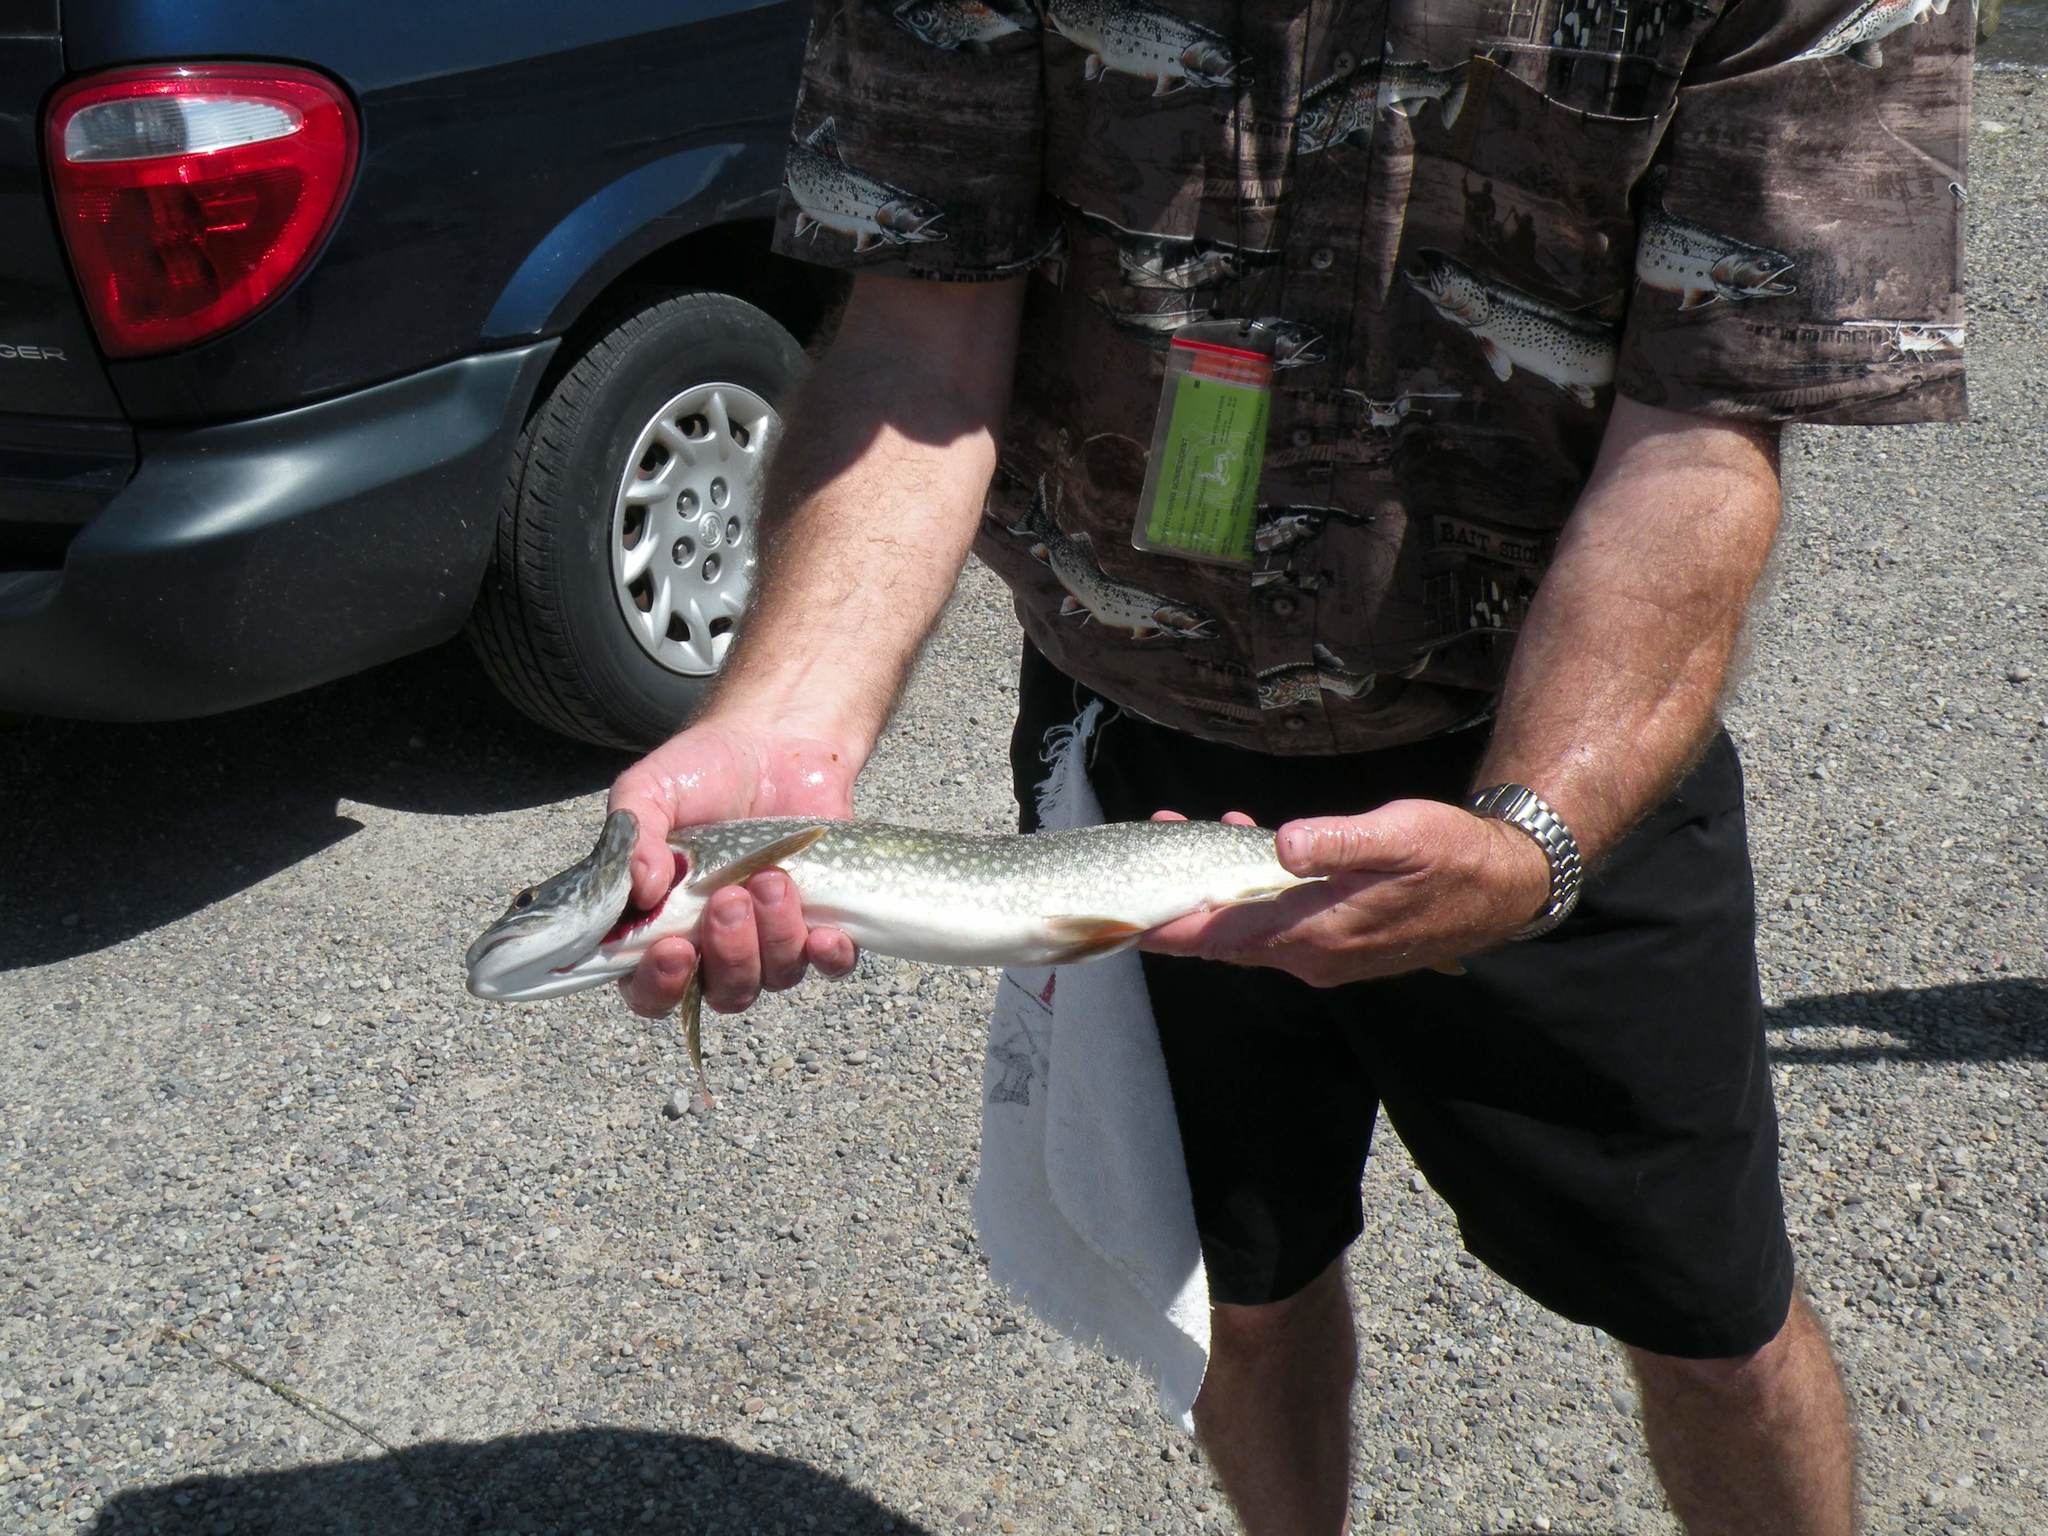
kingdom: Animalia
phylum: Chordata
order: Salmoniformes
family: Salmonidae
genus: Salvelinus
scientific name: Salvelinus namaycush
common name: American lake charr
